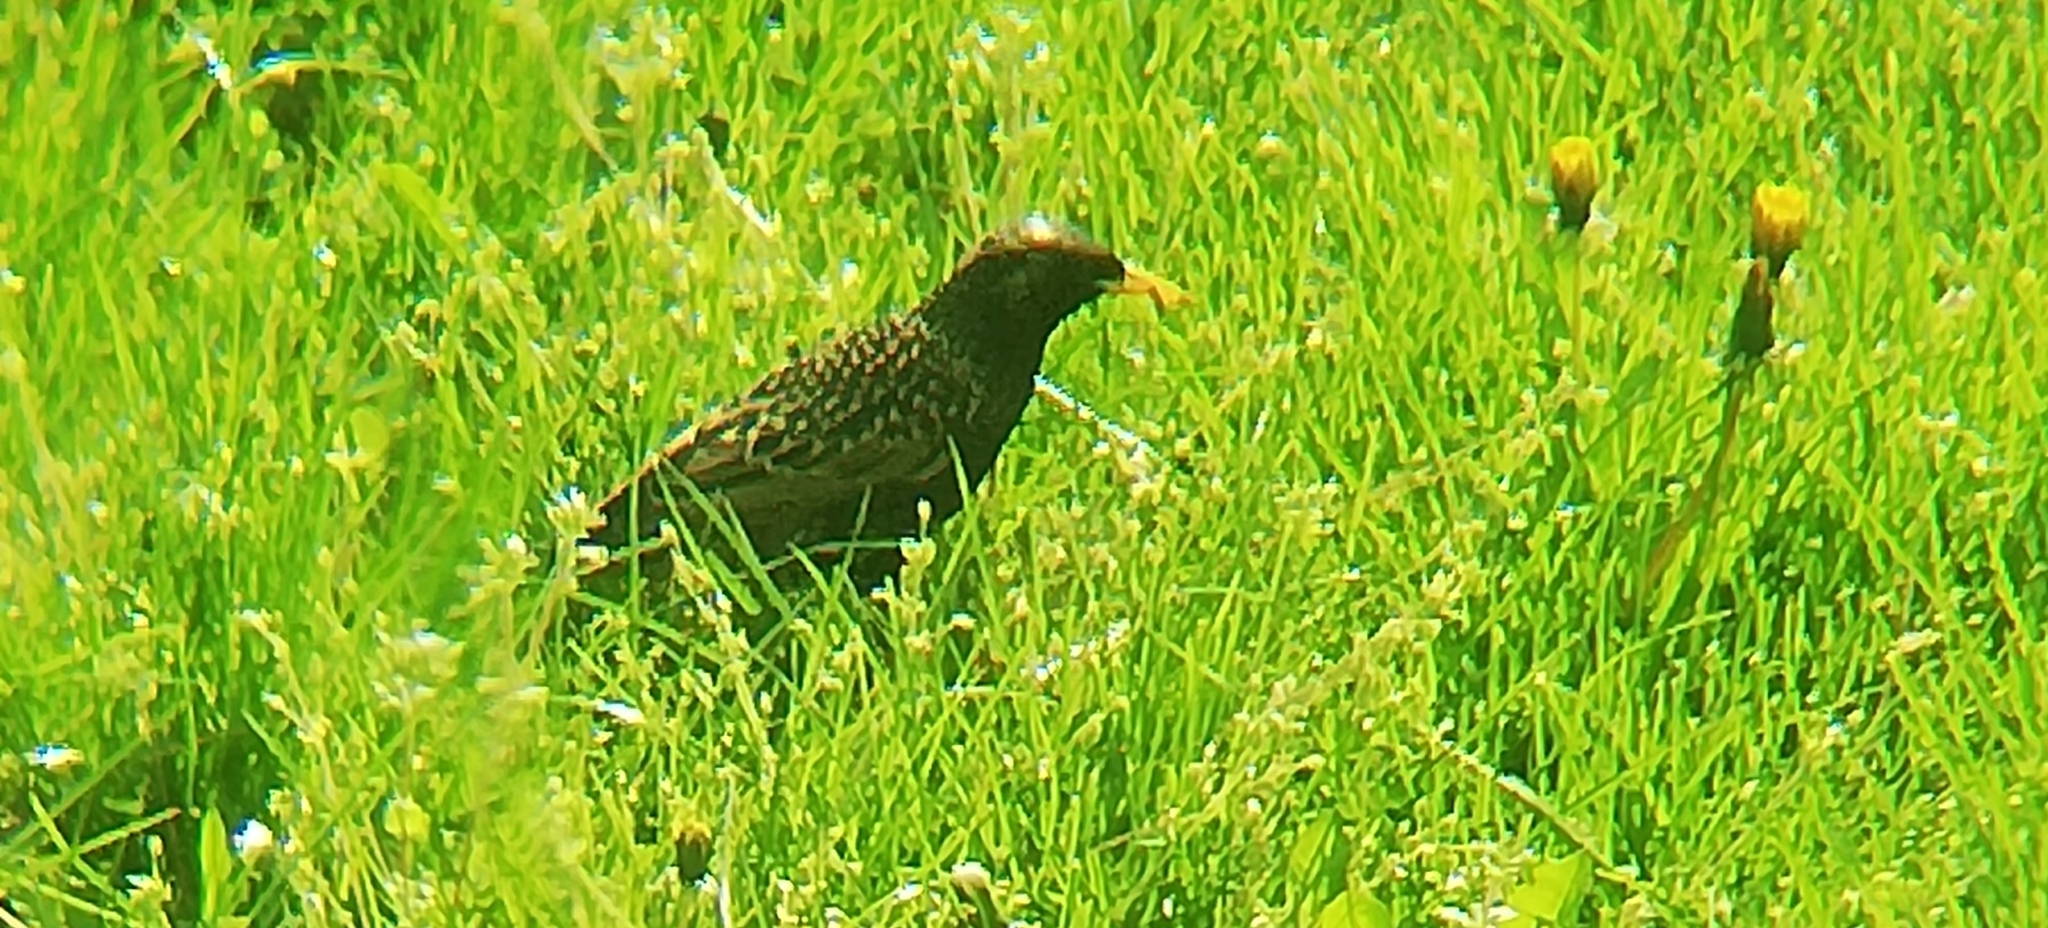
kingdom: Animalia
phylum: Chordata
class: Aves
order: Passeriformes
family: Sturnidae
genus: Sturnus
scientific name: Sturnus vulgaris
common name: Common starling
